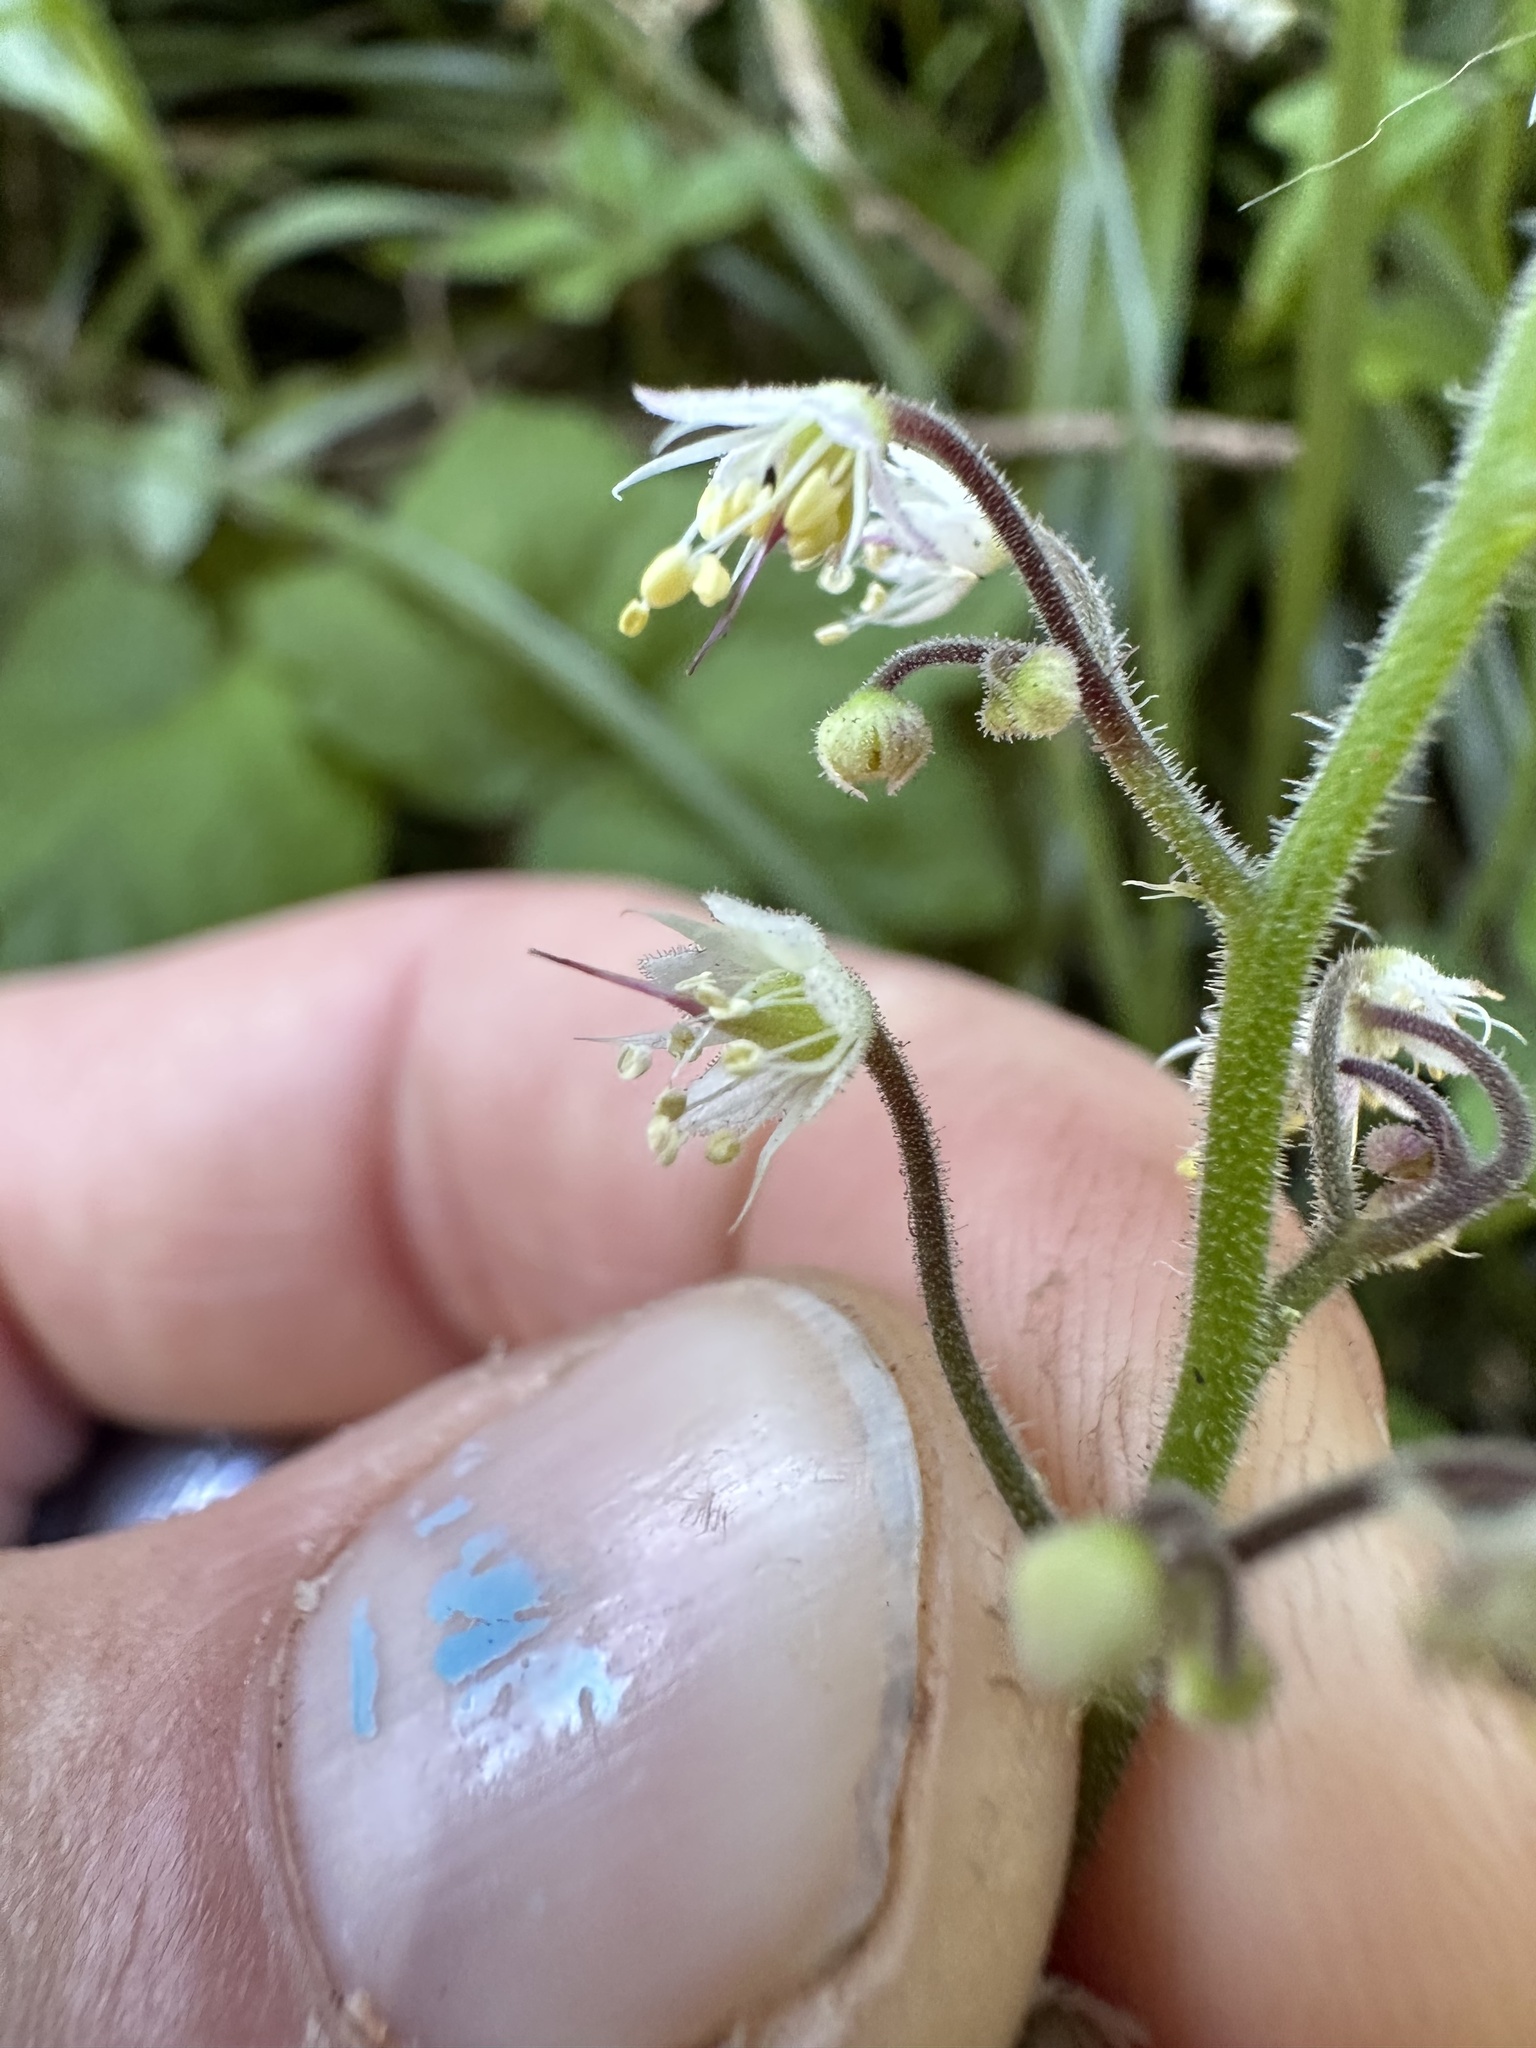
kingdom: Plantae
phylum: Tracheophyta
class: Magnoliopsida
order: Saxifragales
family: Saxifragaceae
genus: Tiarella
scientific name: Tiarella trifoliata
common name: Sugar-scoop
